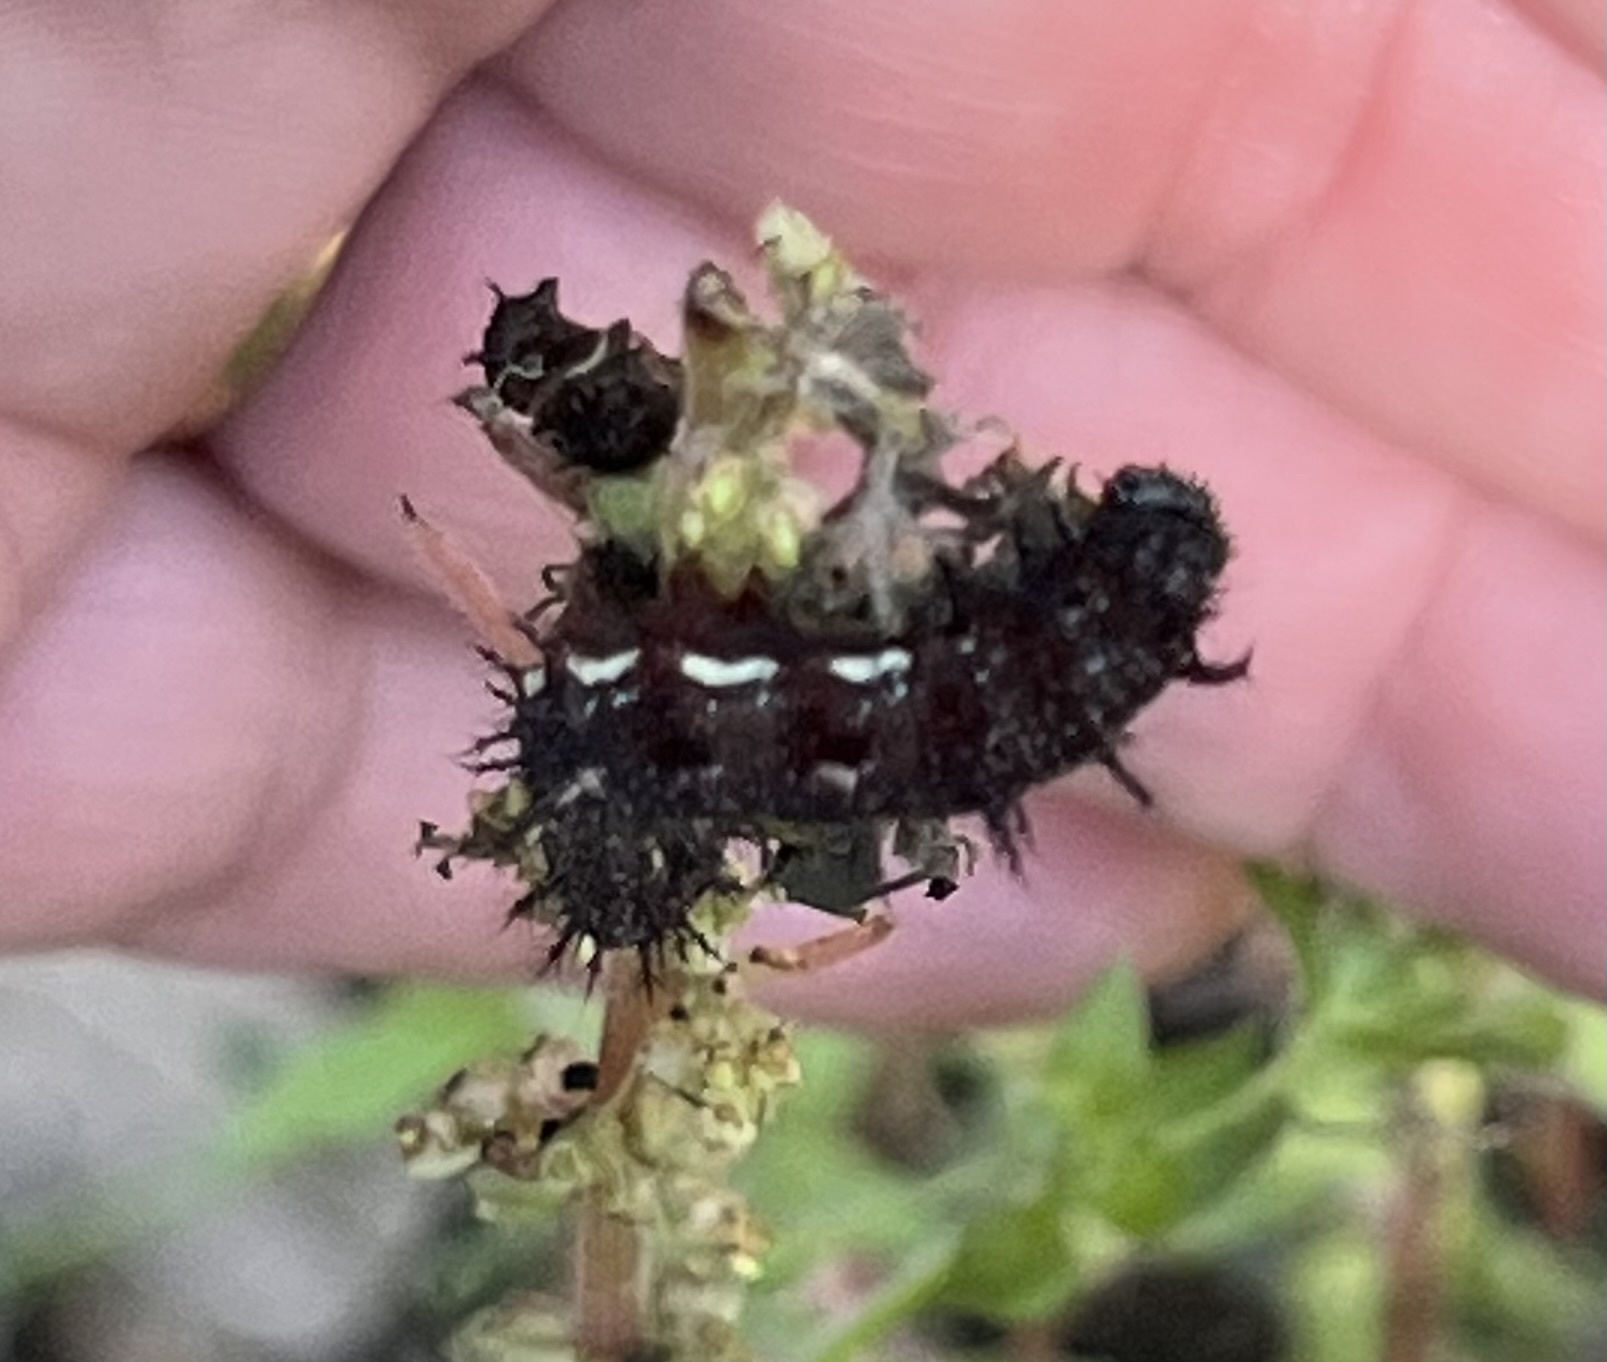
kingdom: Animalia
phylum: Arthropoda
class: Insecta
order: Lepidoptera
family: Nymphalidae
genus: Vanessa
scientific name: Vanessa atalanta
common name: Red admiral
